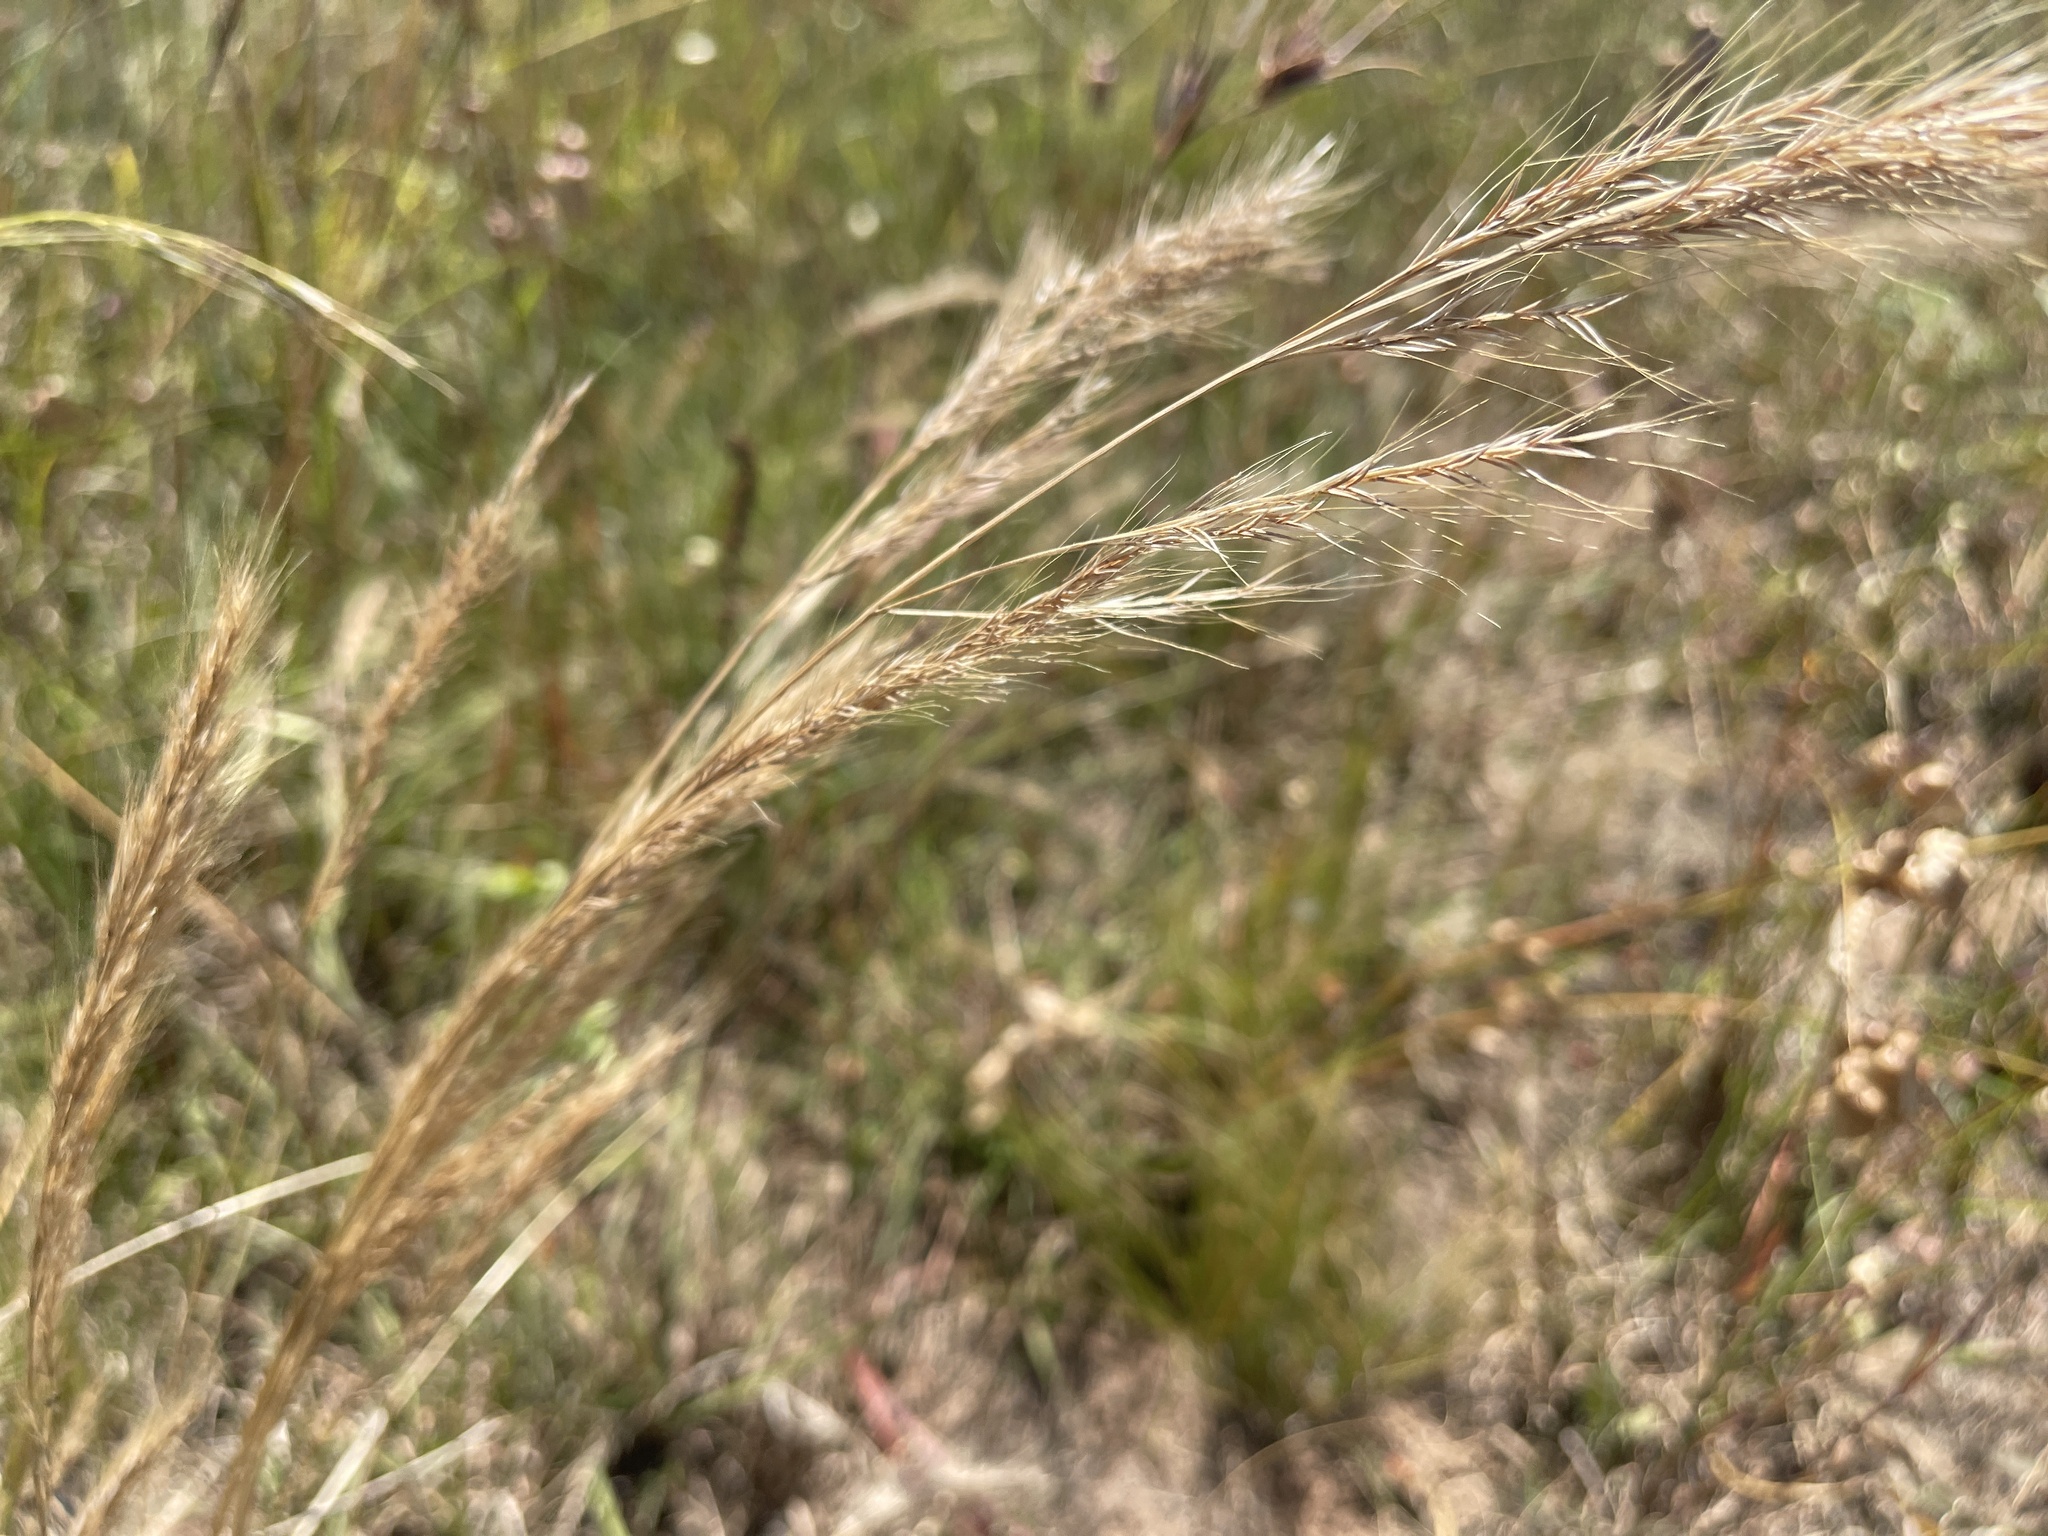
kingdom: Plantae
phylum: Tracheophyta
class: Liliopsida
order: Poales
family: Poaceae
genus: Dichelachne
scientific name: Dichelachne micrantha
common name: Plumegrass
